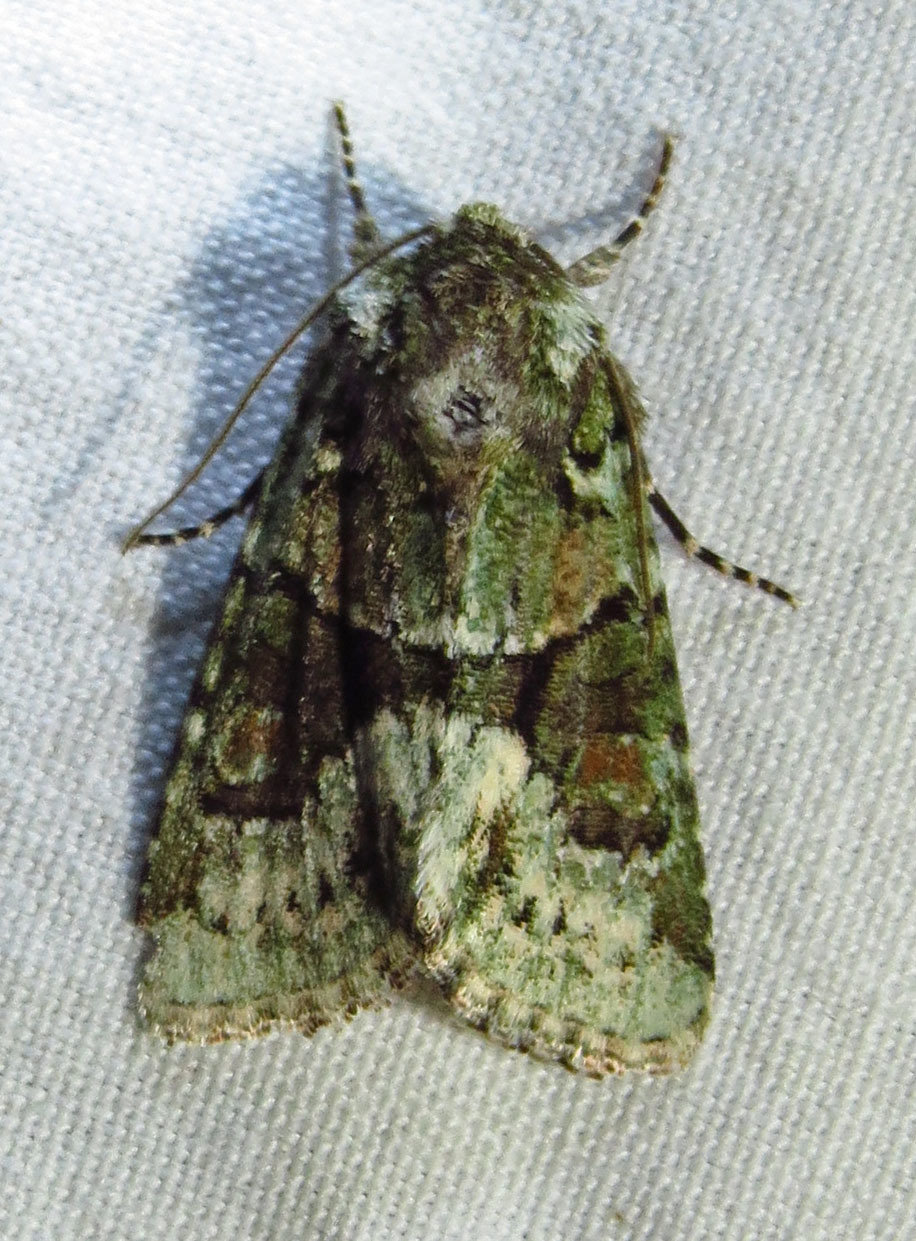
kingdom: Animalia
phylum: Arthropoda
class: Insecta
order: Lepidoptera
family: Noctuidae
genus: Lacinipolia
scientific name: Lacinipolia explicata
